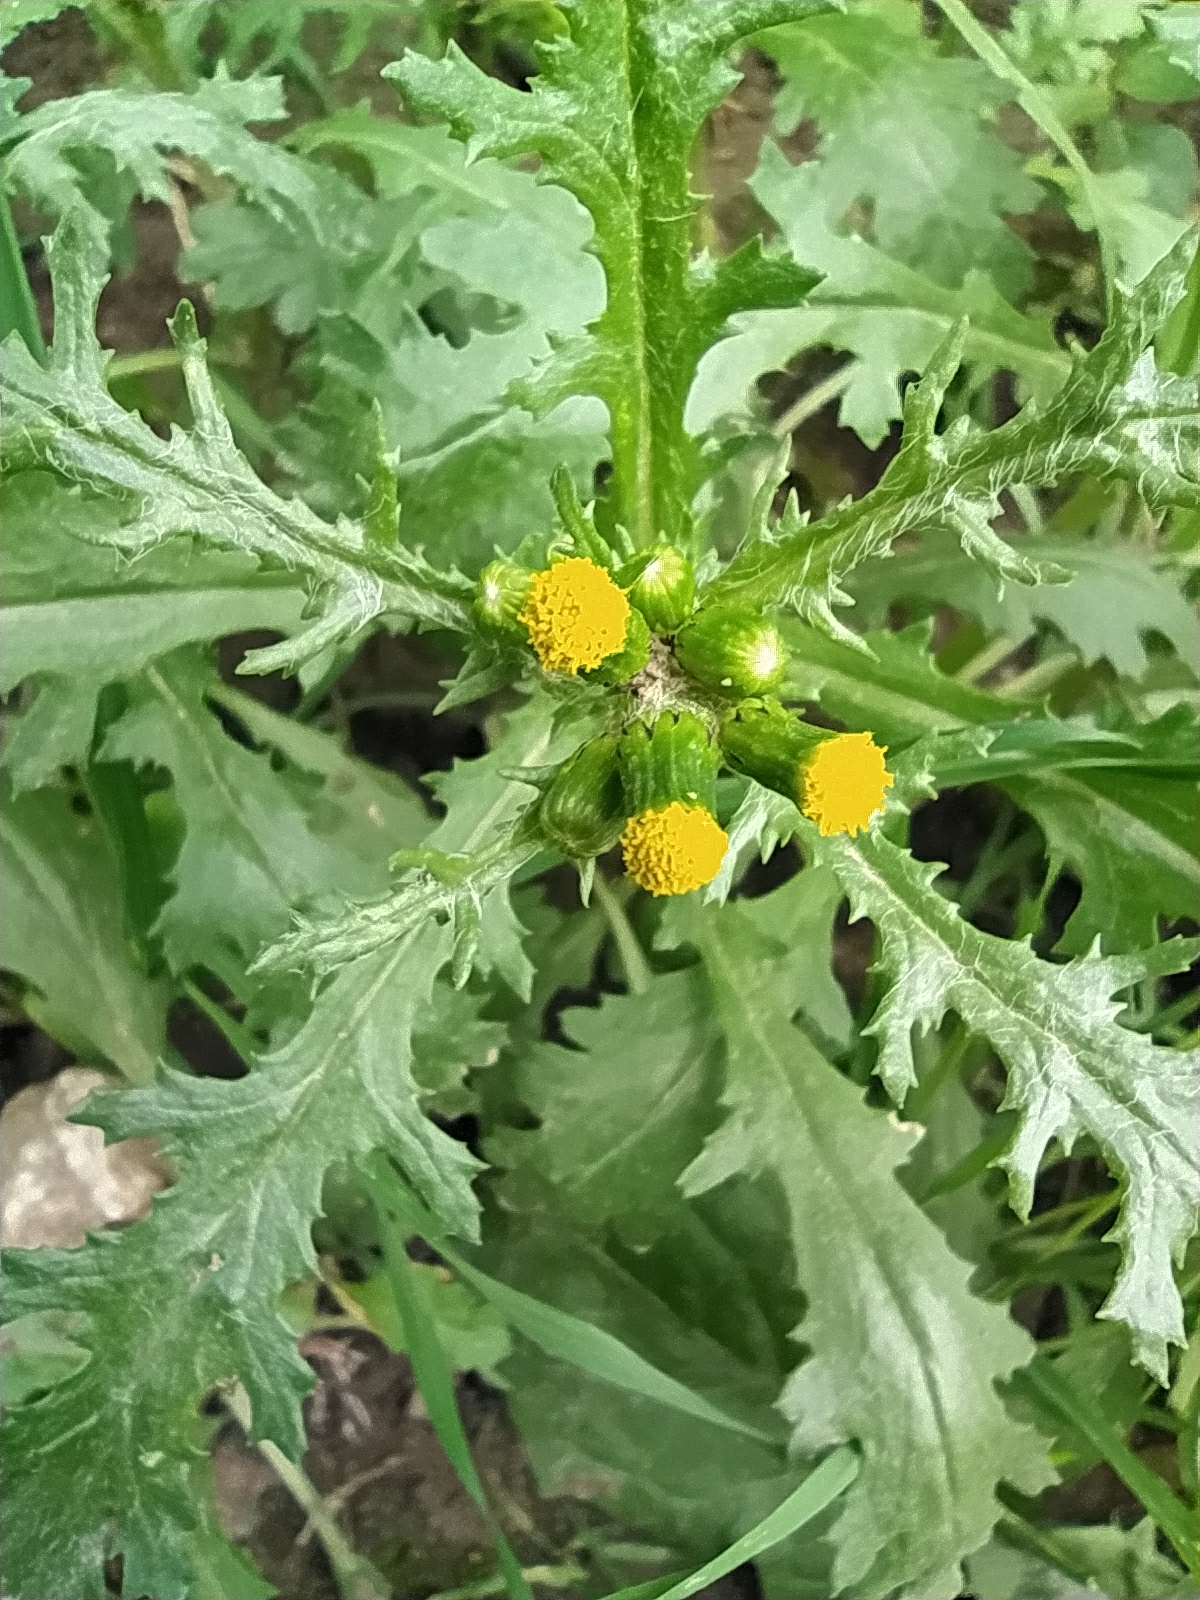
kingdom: Plantae
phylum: Tracheophyta
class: Magnoliopsida
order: Asterales
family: Asteraceae
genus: Senecio
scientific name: Senecio vulgaris
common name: Old-man-in-the-spring
